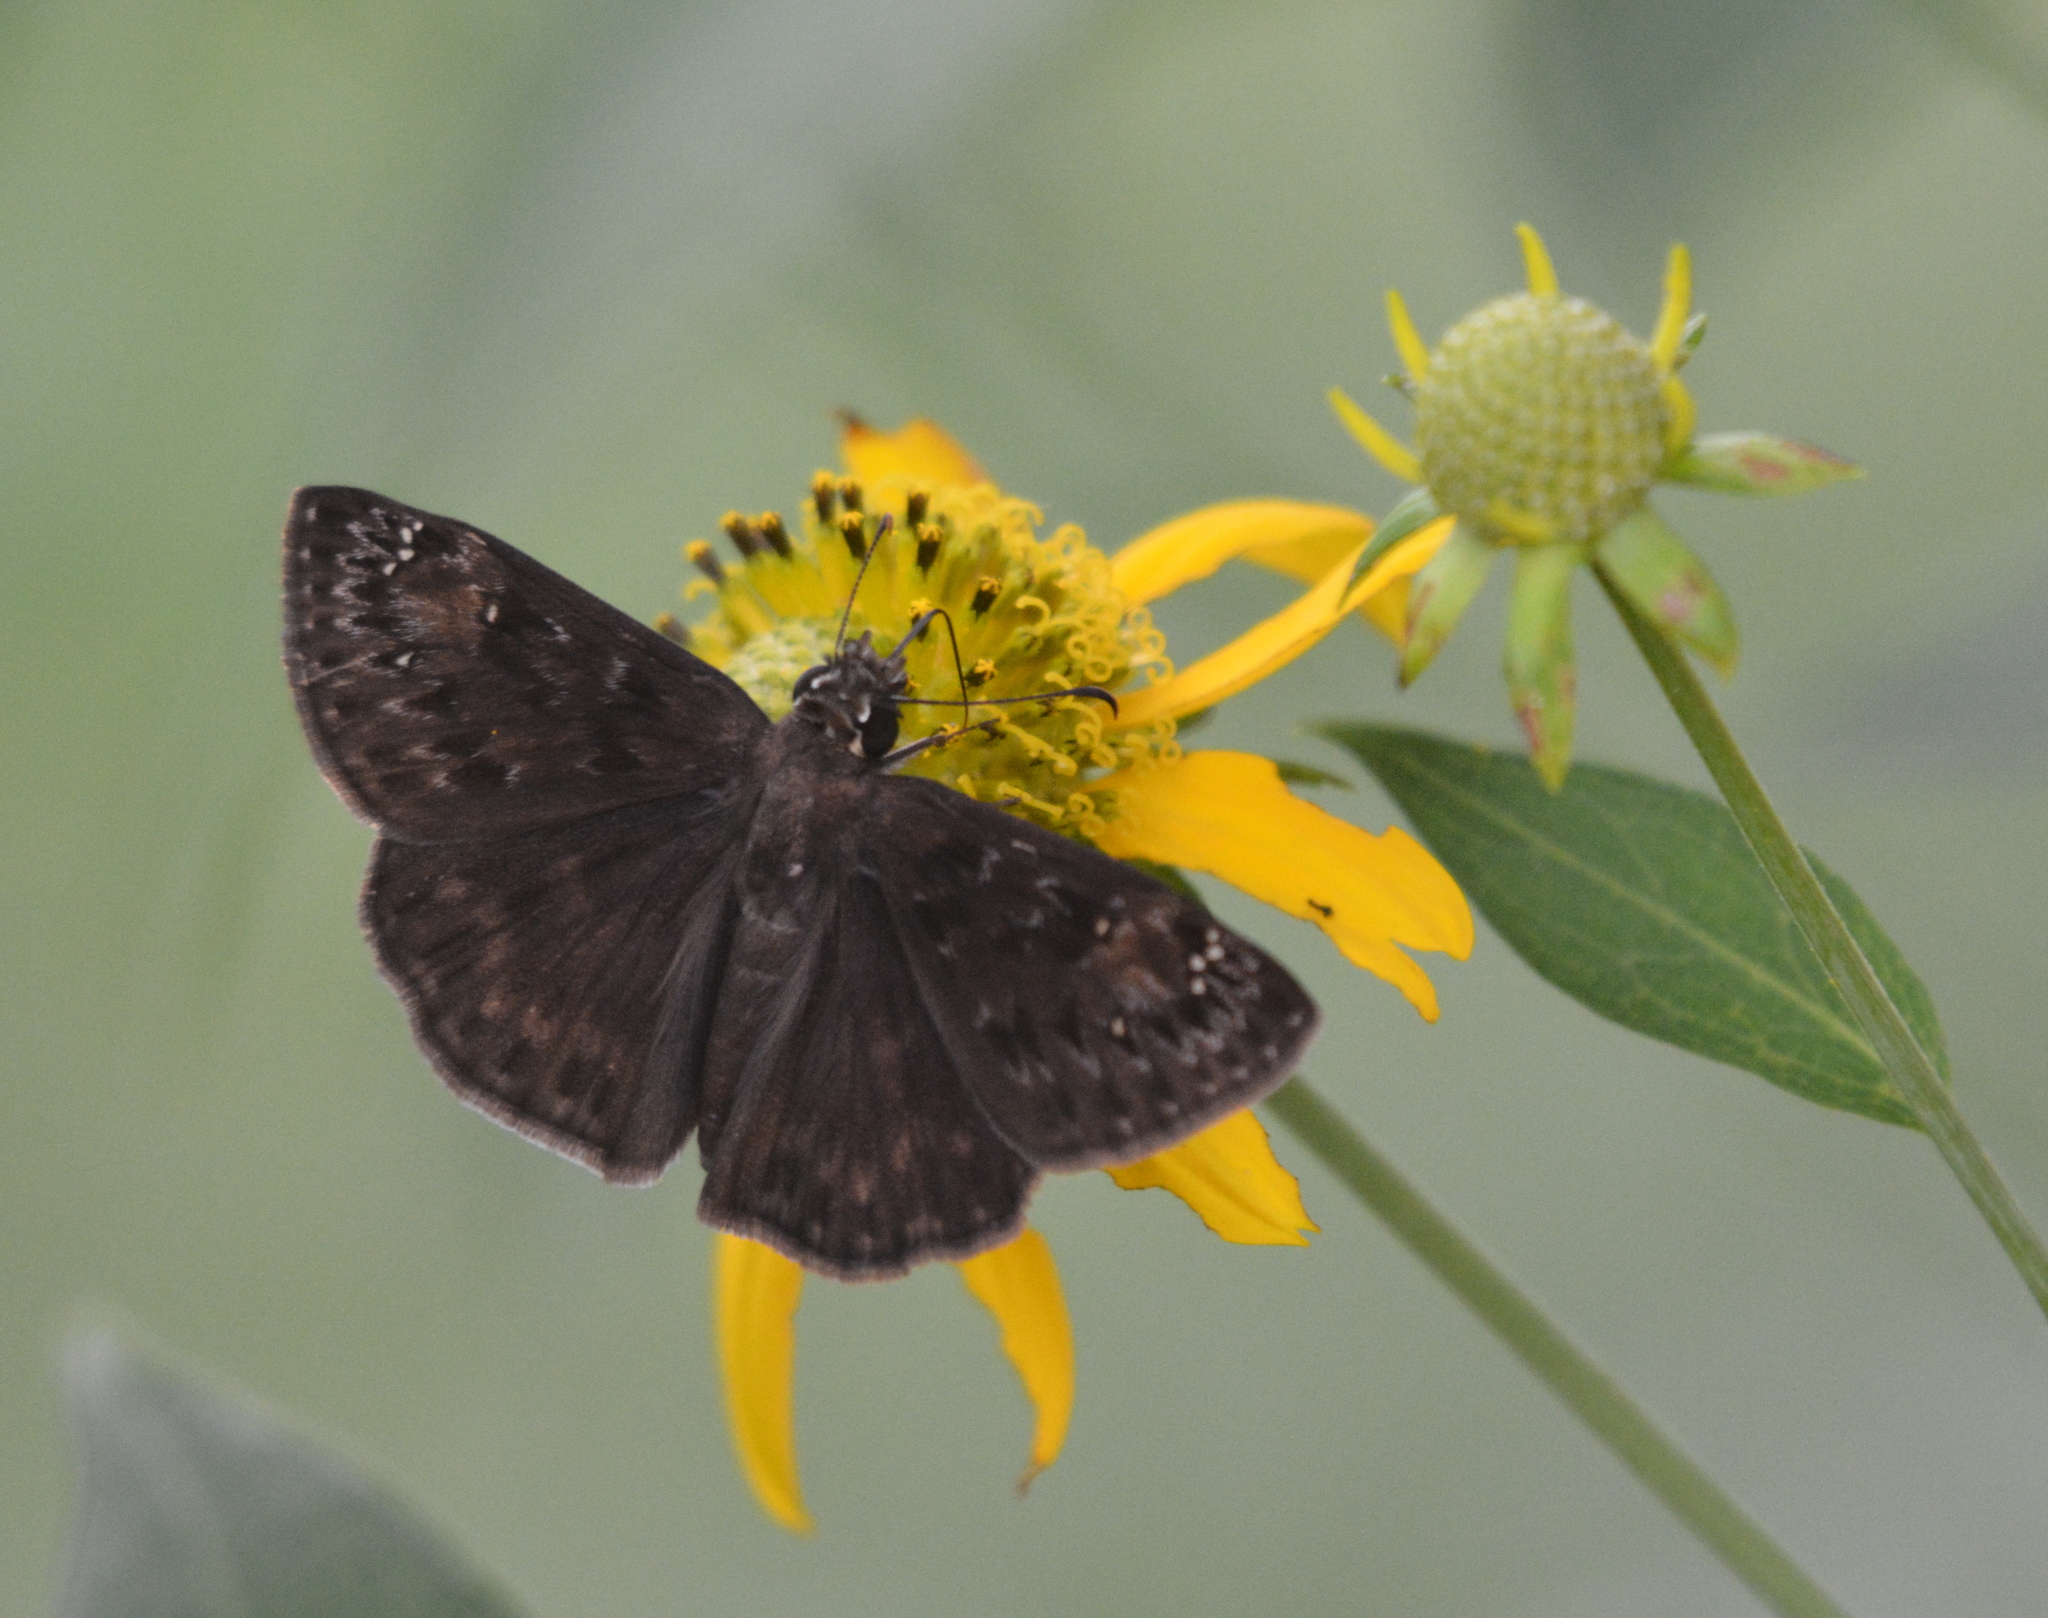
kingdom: Animalia
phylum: Arthropoda
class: Insecta
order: Lepidoptera
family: Hesperiidae
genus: Erynnis
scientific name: Erynnis horatius
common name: Horace's duskywing
